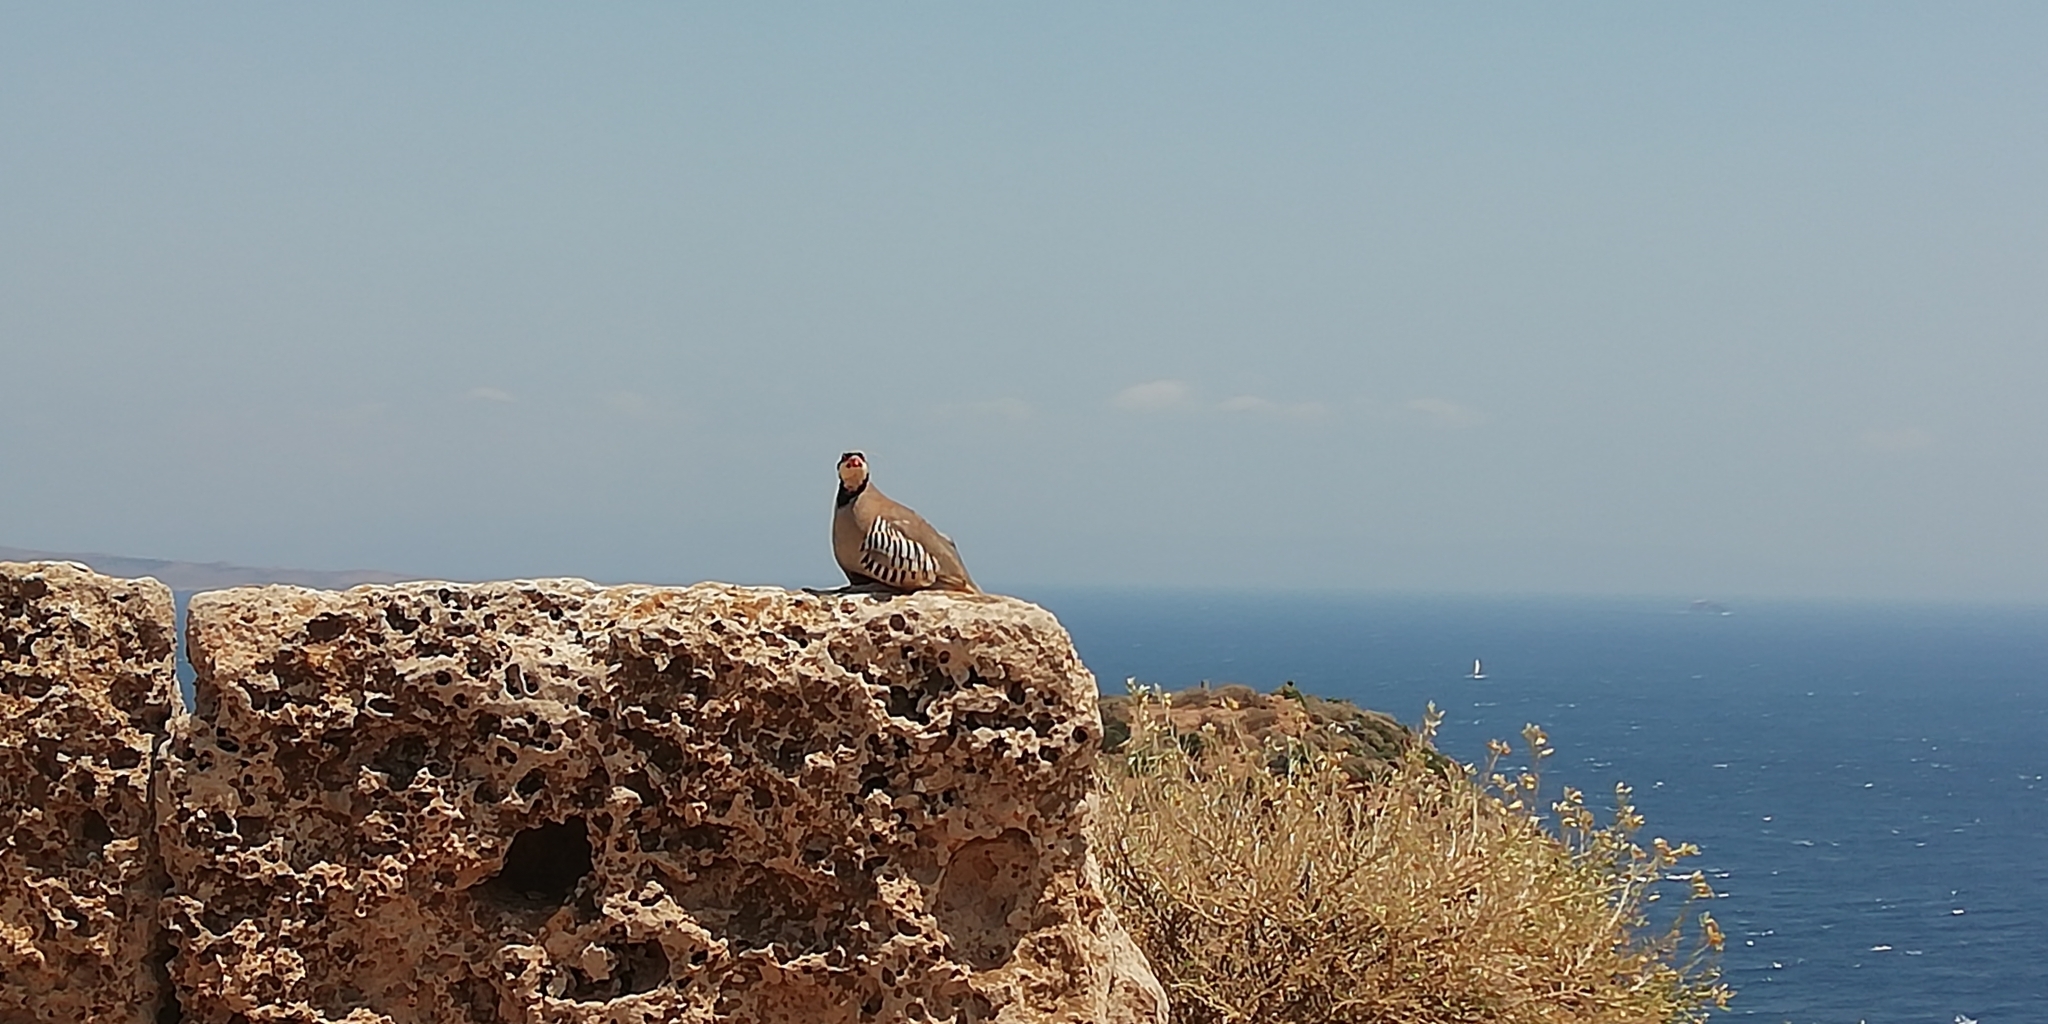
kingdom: Animalia
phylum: Chordata
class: Aves
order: Galliformes
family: Phasianidae
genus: Alectoris
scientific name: Alectoris chukar
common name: Chukar
